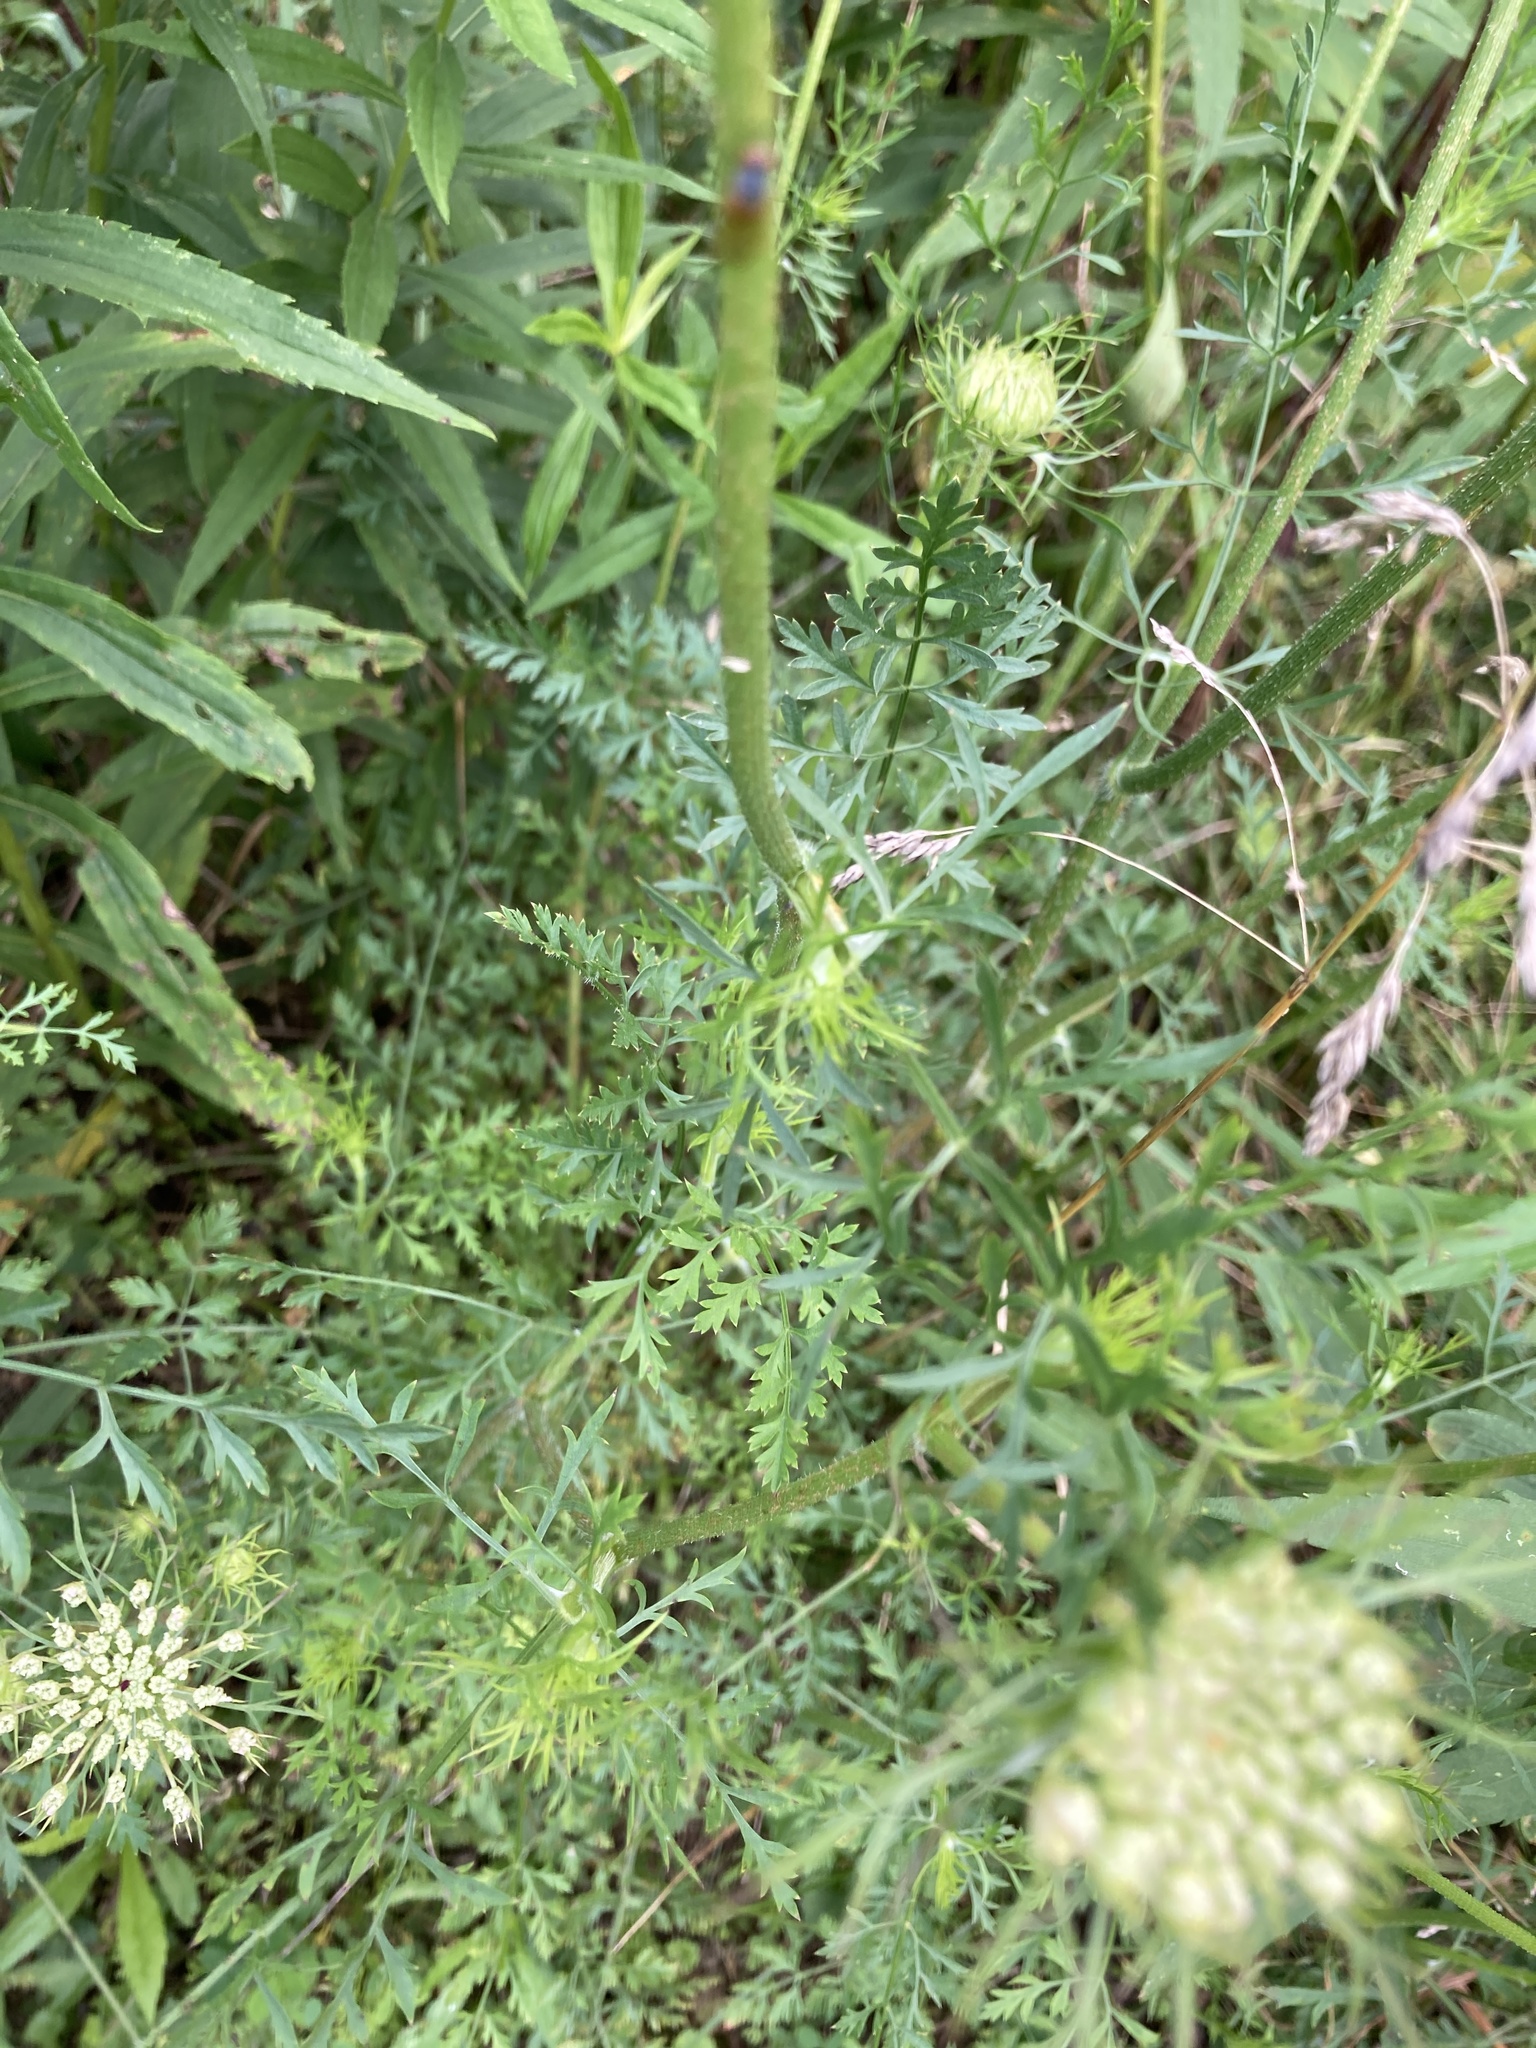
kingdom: Plantae
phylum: Tracheophyta
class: Magnoliopsida
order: Apiales
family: Apiaceae
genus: Daucus
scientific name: Daucus carota
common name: Wild carrot
